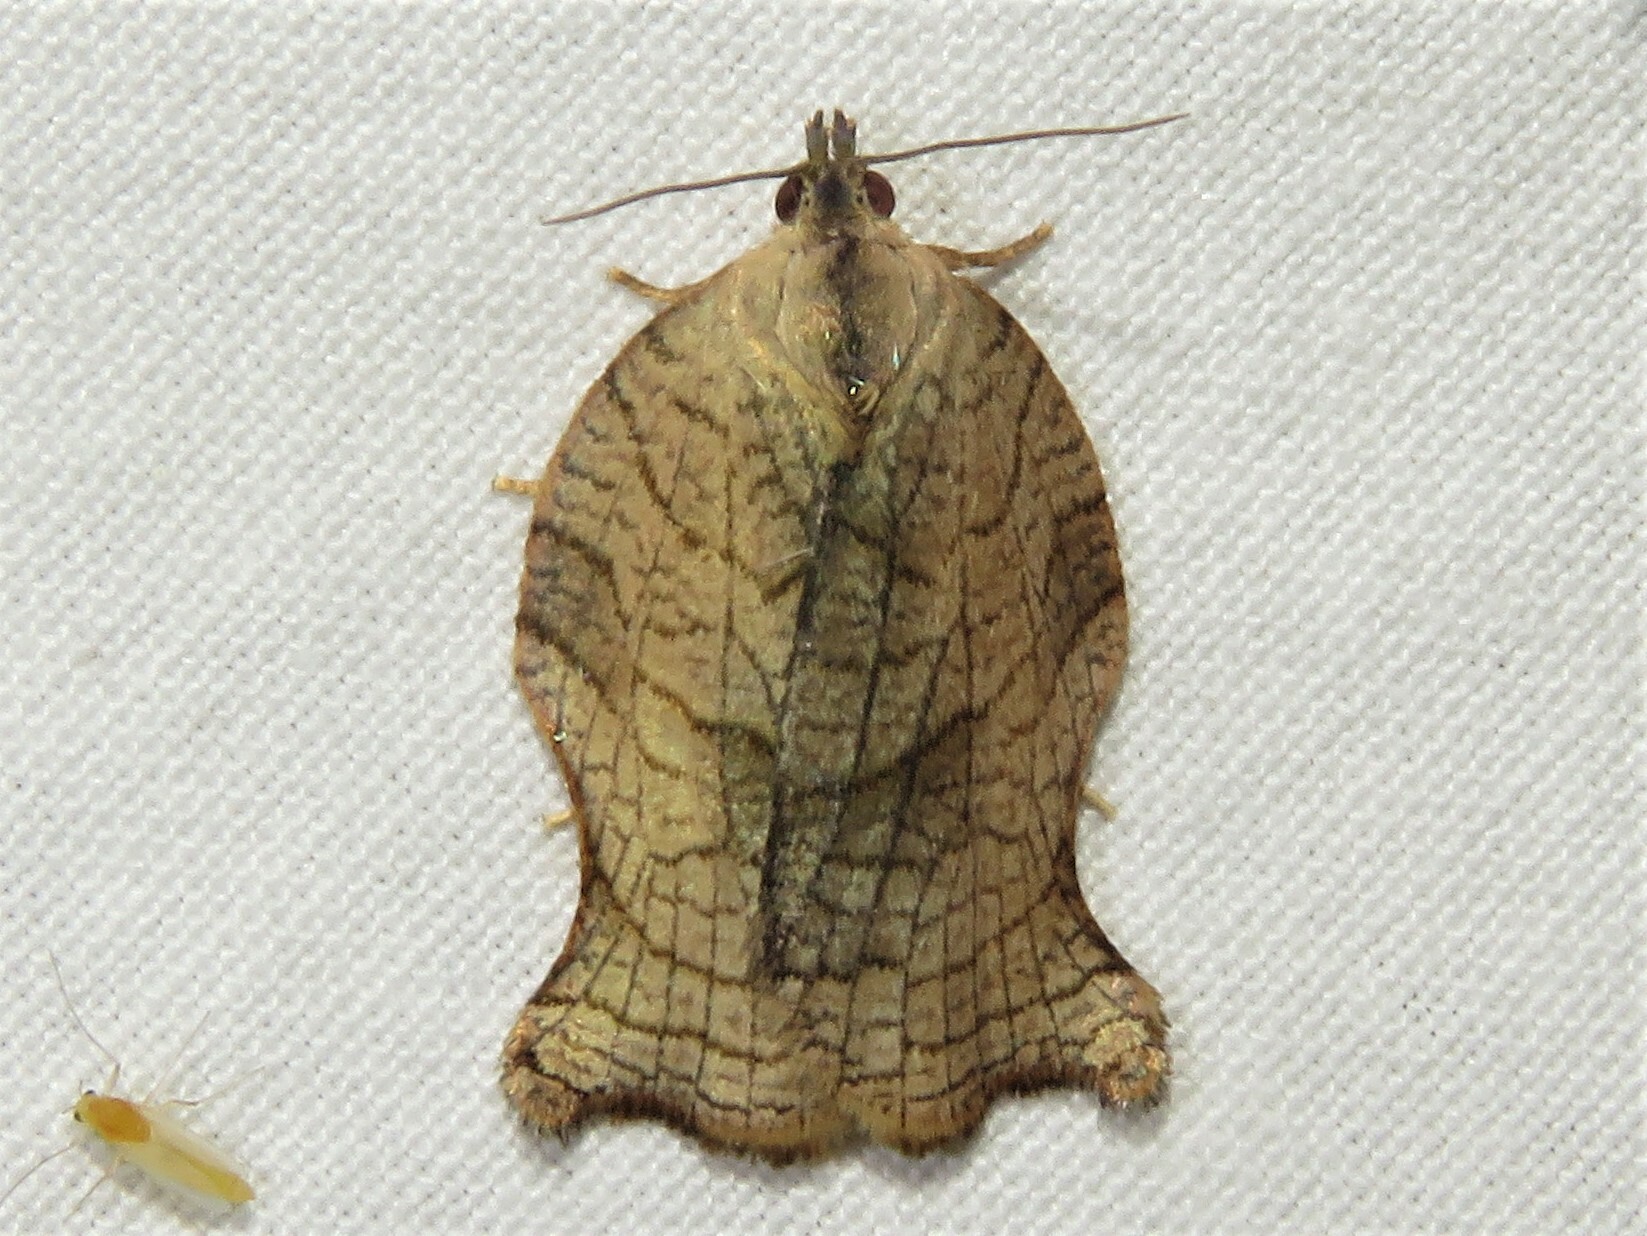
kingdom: Animalia
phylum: Arthropoda
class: Insecta
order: Lepidoptera
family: Tortricidae
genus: Archips
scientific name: Archips purpurana
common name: Omnivorous leafroller
